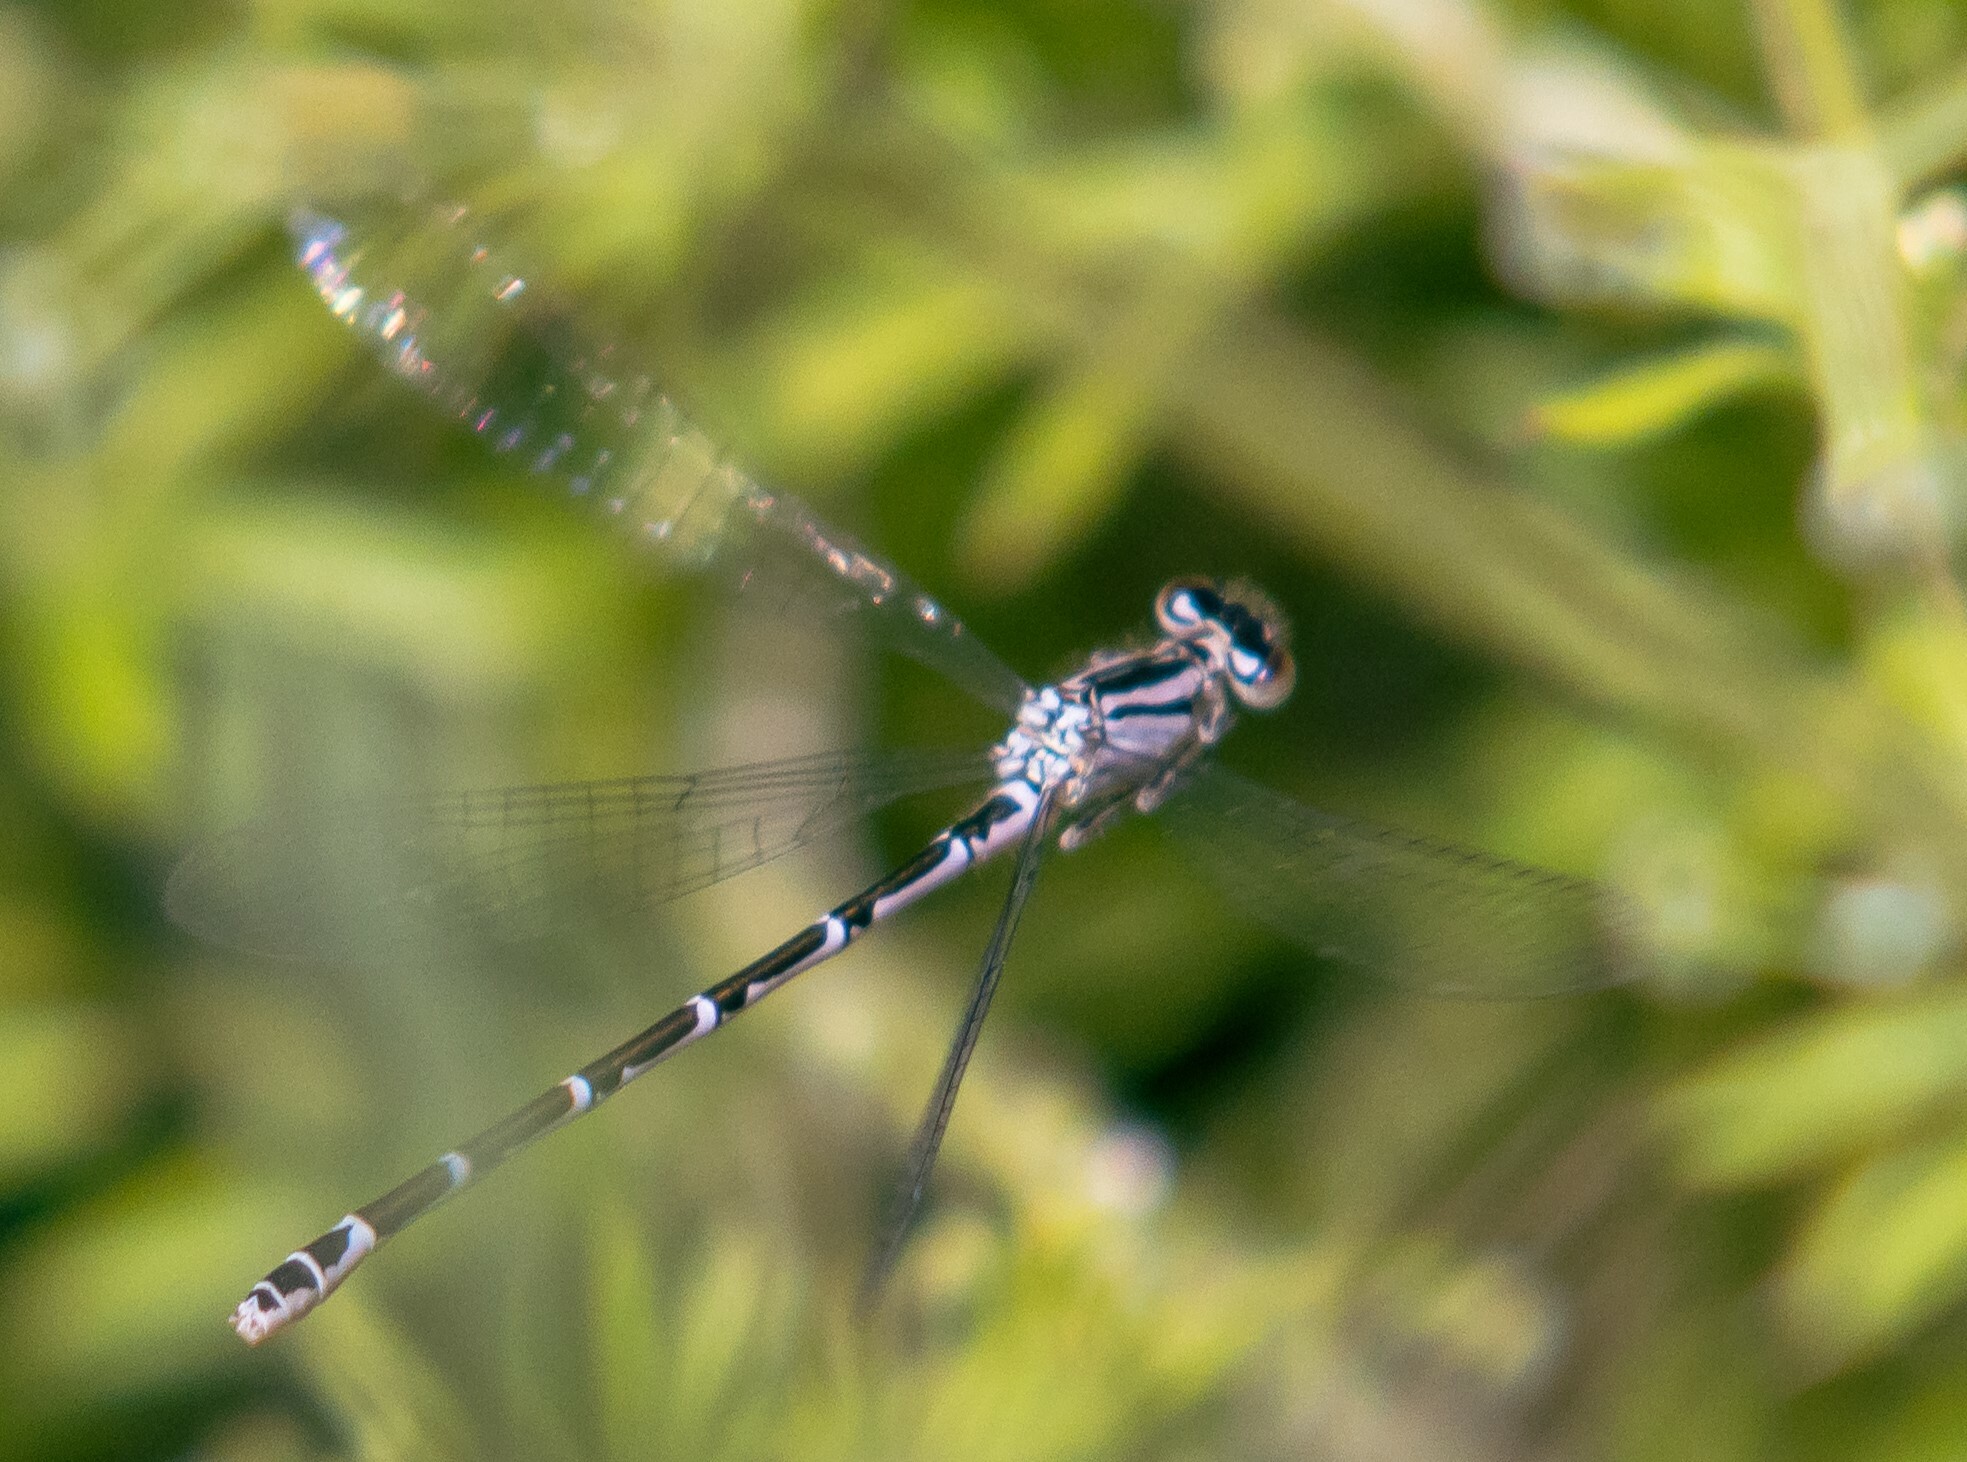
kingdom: Animalia
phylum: Arthropoda
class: Insecta
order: Odonata
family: Coenagrionidae
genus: Enallagma
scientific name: Enallagma cyathigerum
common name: Common blue damselfly
